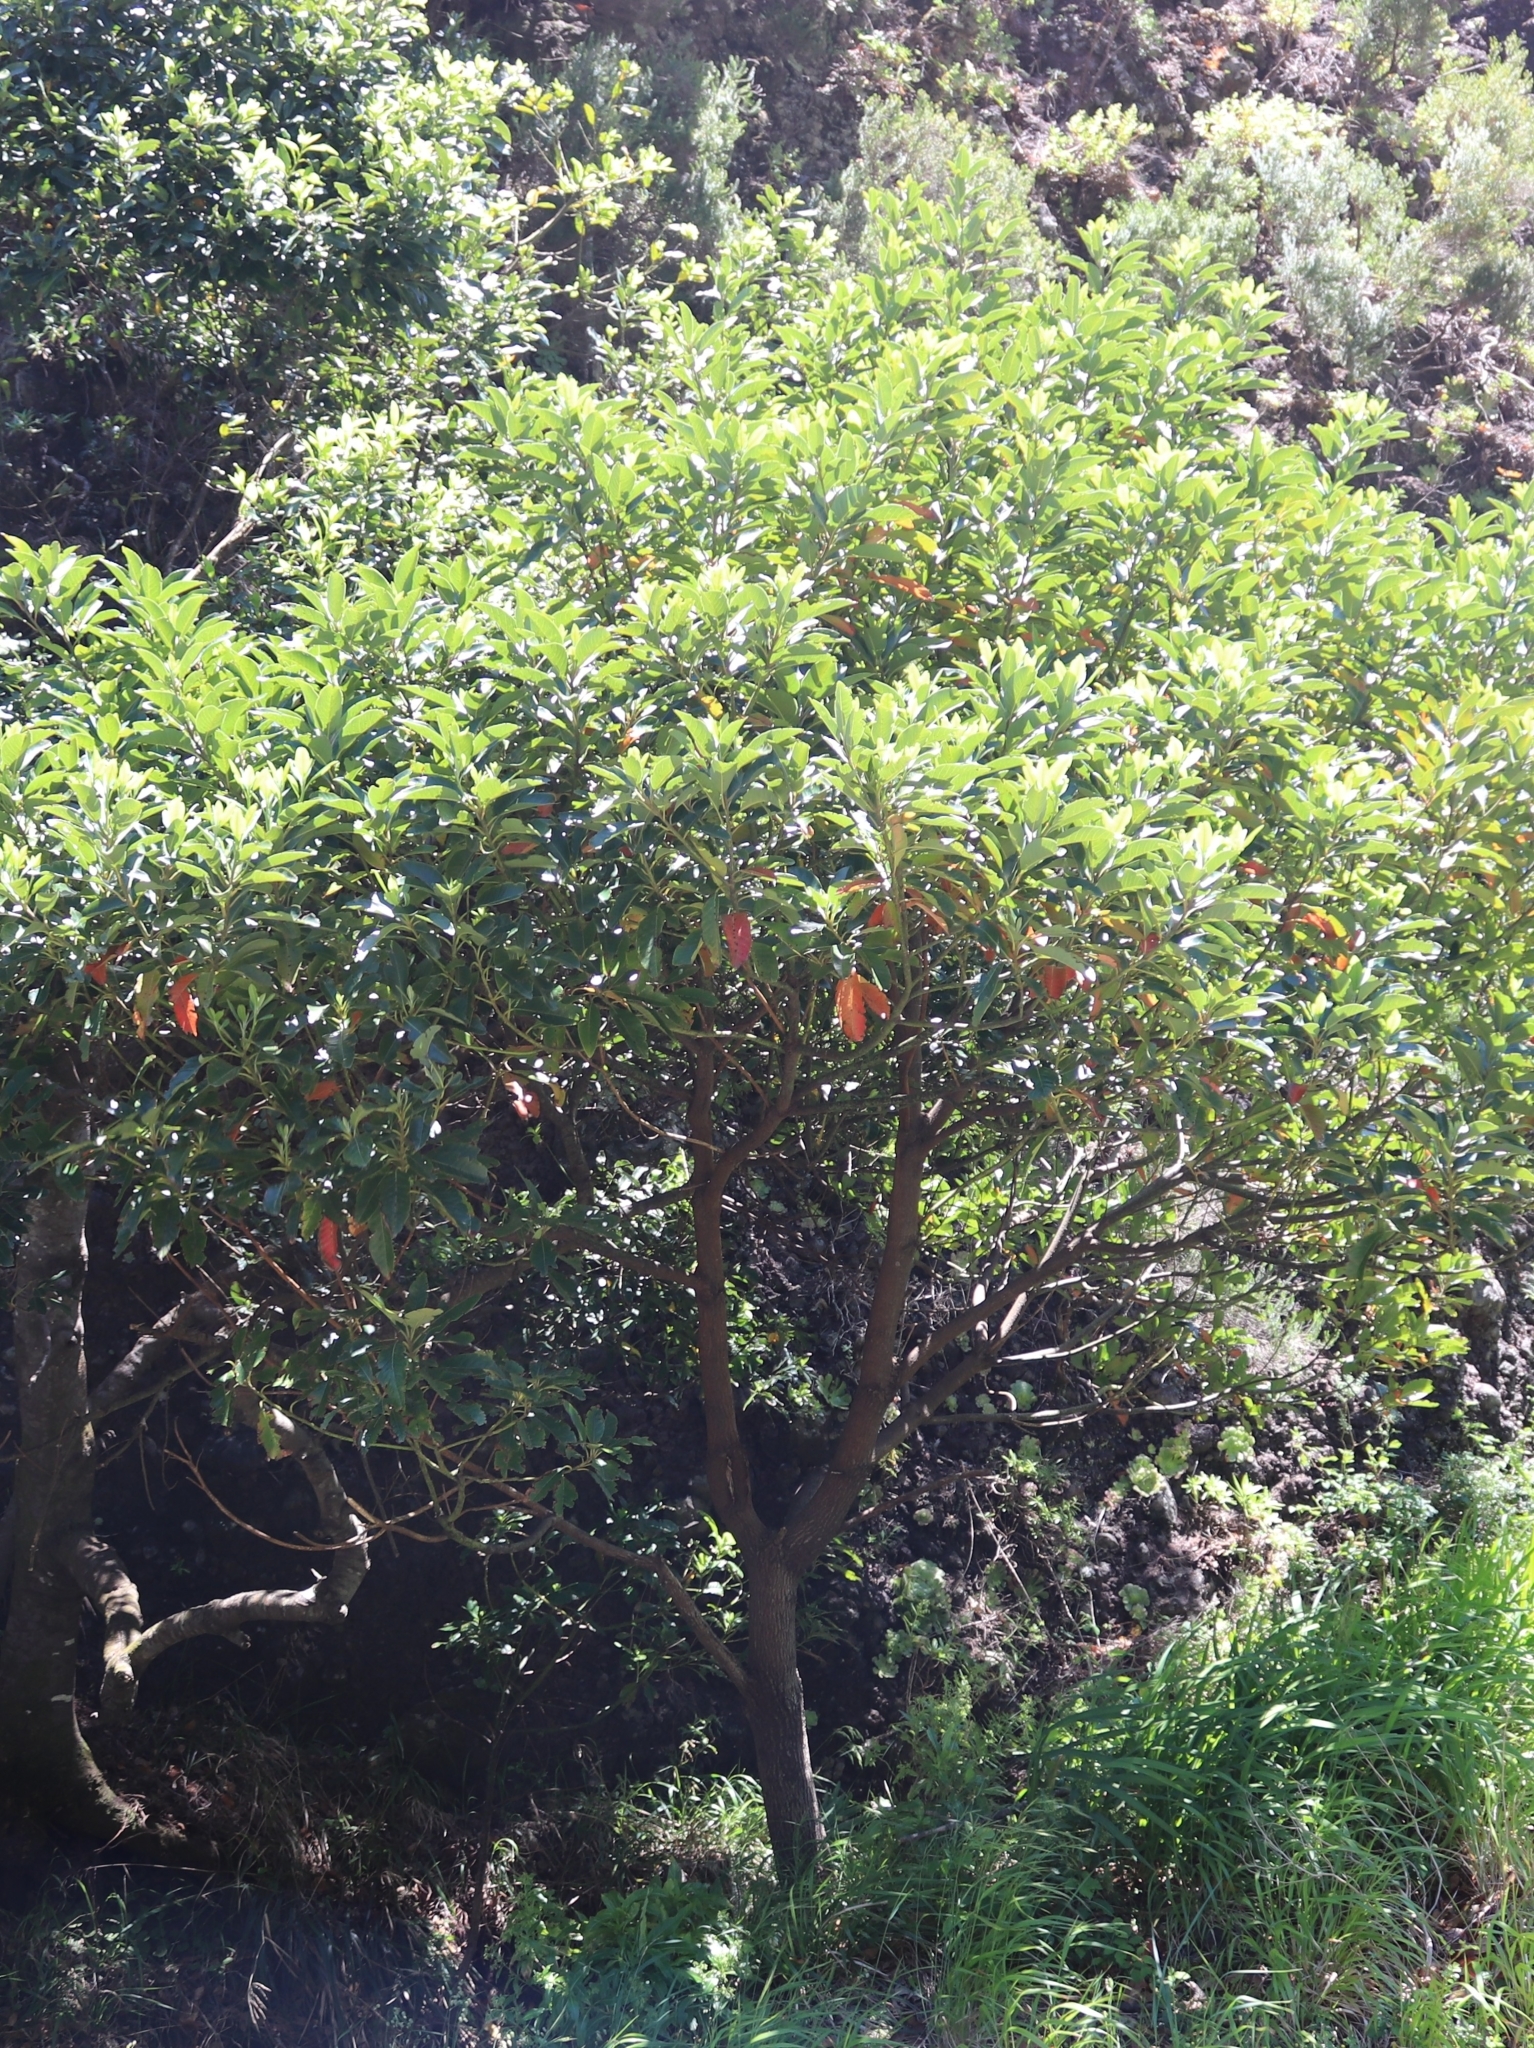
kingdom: Plantae
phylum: Tracheophyta
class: Magnoliopsida
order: Laurales
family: Lauraceae
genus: Persea
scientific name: Persea indica
